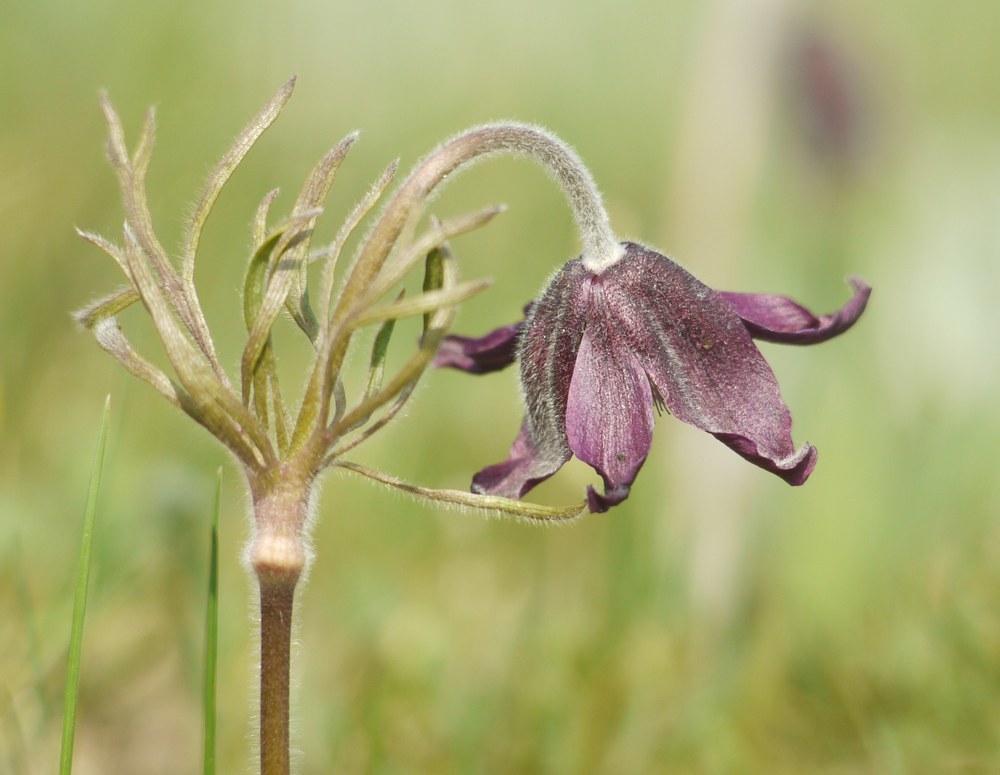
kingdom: Plantae
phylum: Tracheophyta
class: Magnoliopsida
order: Ranunculales
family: Ranunculaceae
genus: Pulsatilla
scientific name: Pulsatilla pratensis
